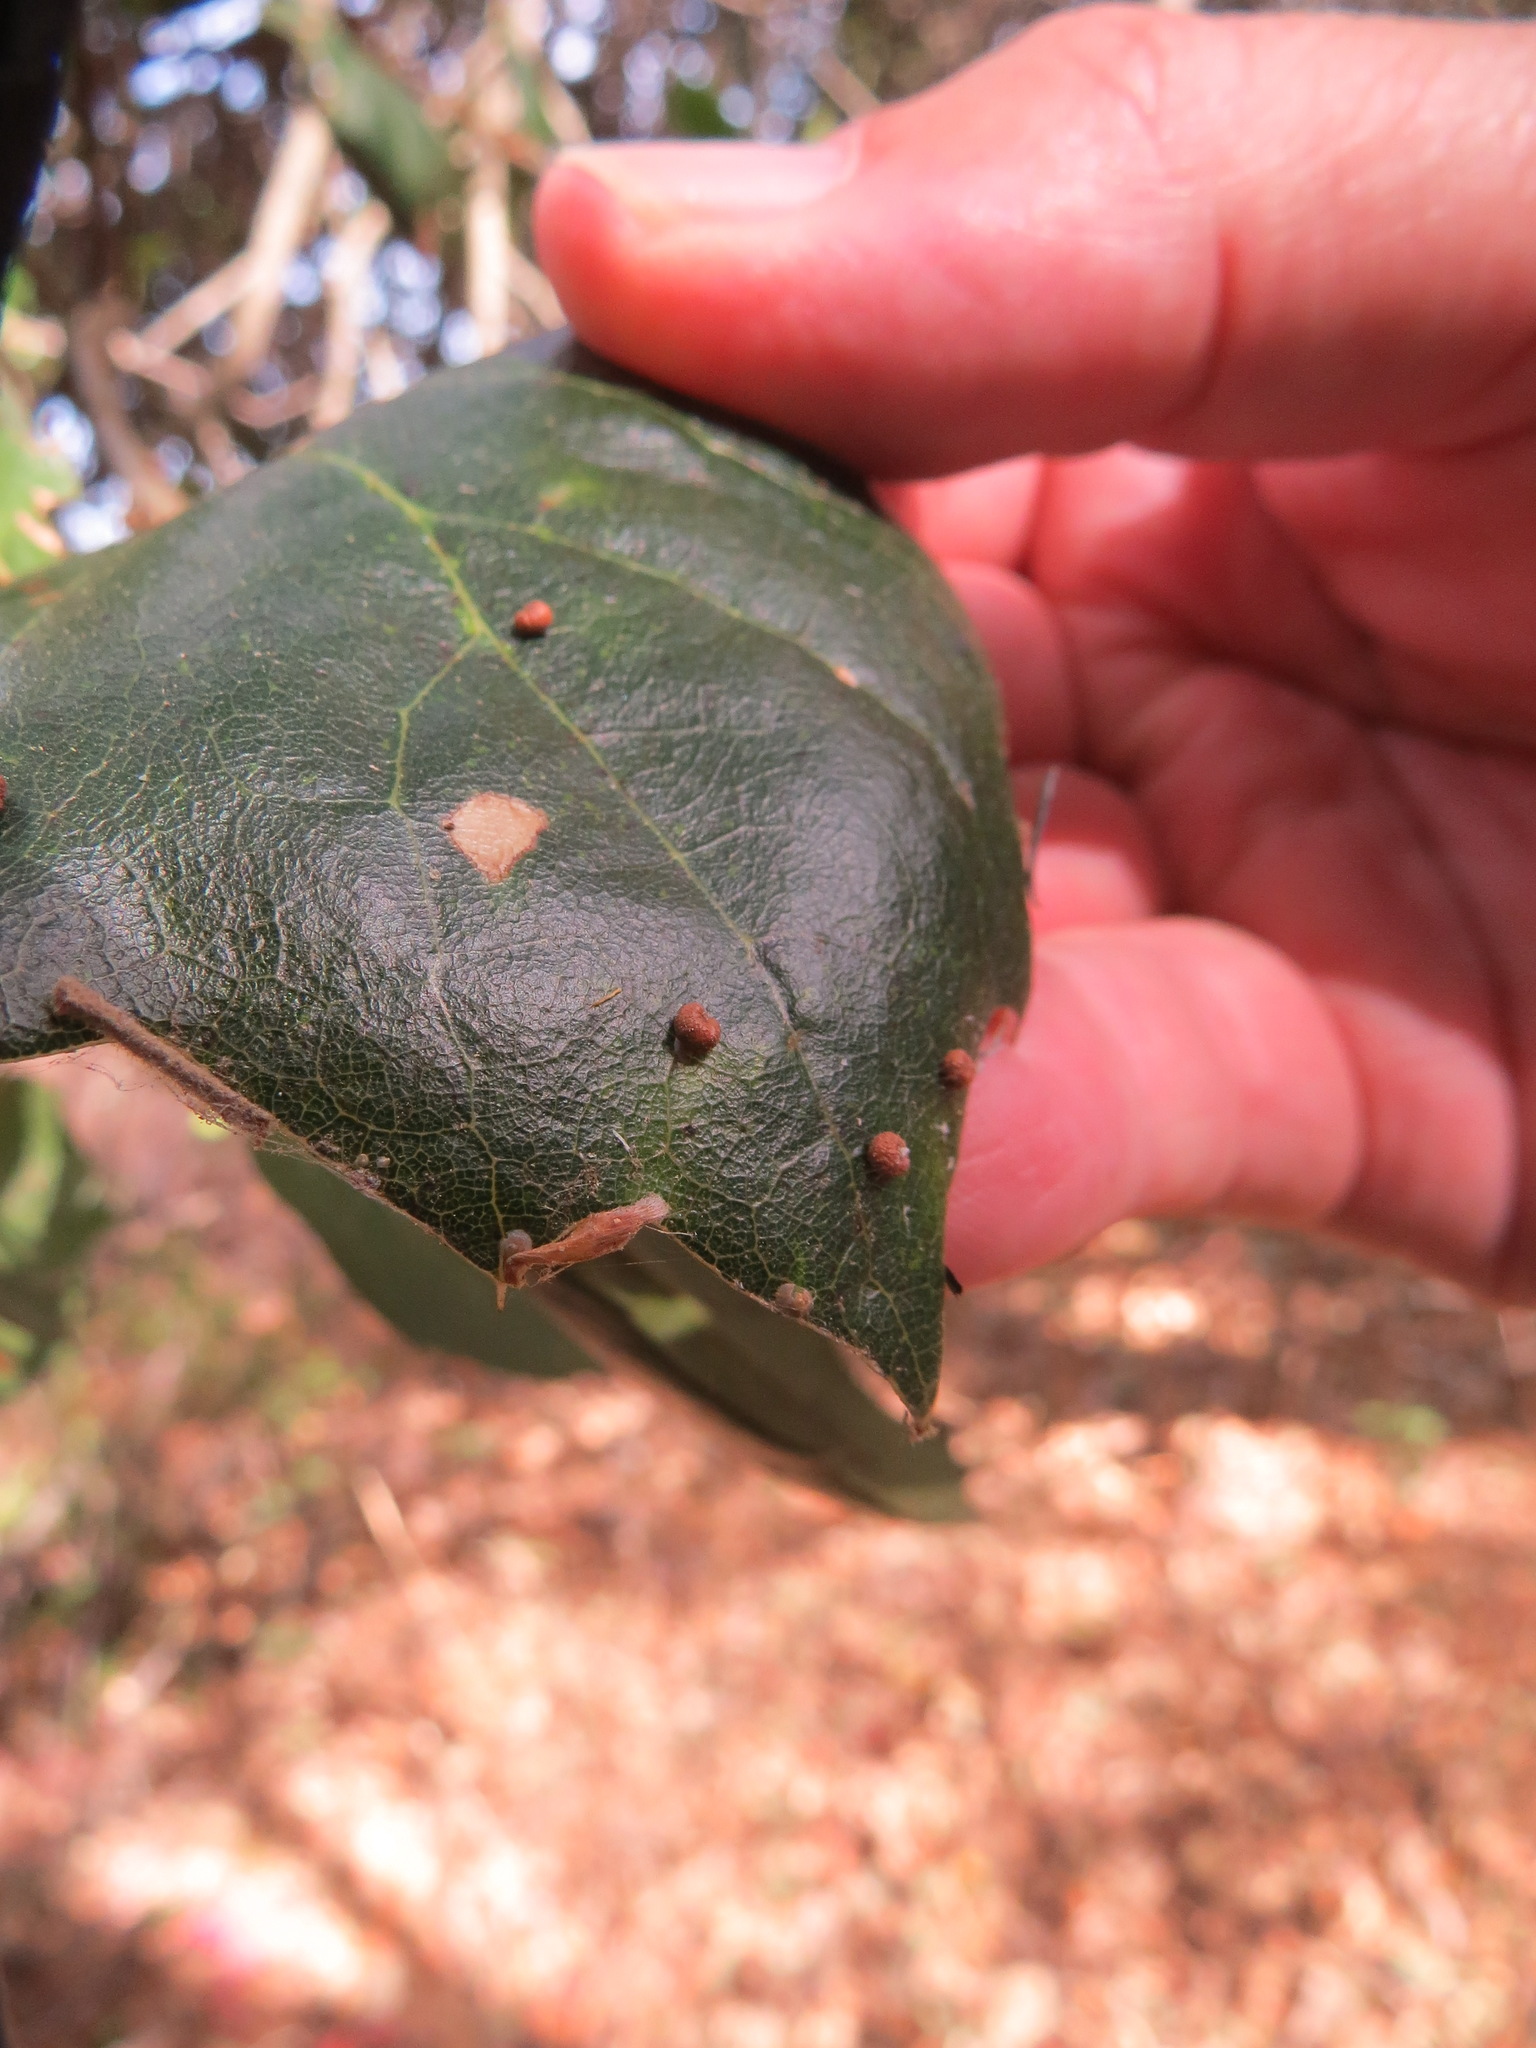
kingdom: Animalia
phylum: Arthropoda
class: Insecta
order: Hymenoptera
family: Cynipidae
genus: Dryocosmus
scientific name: Dryocosmus
